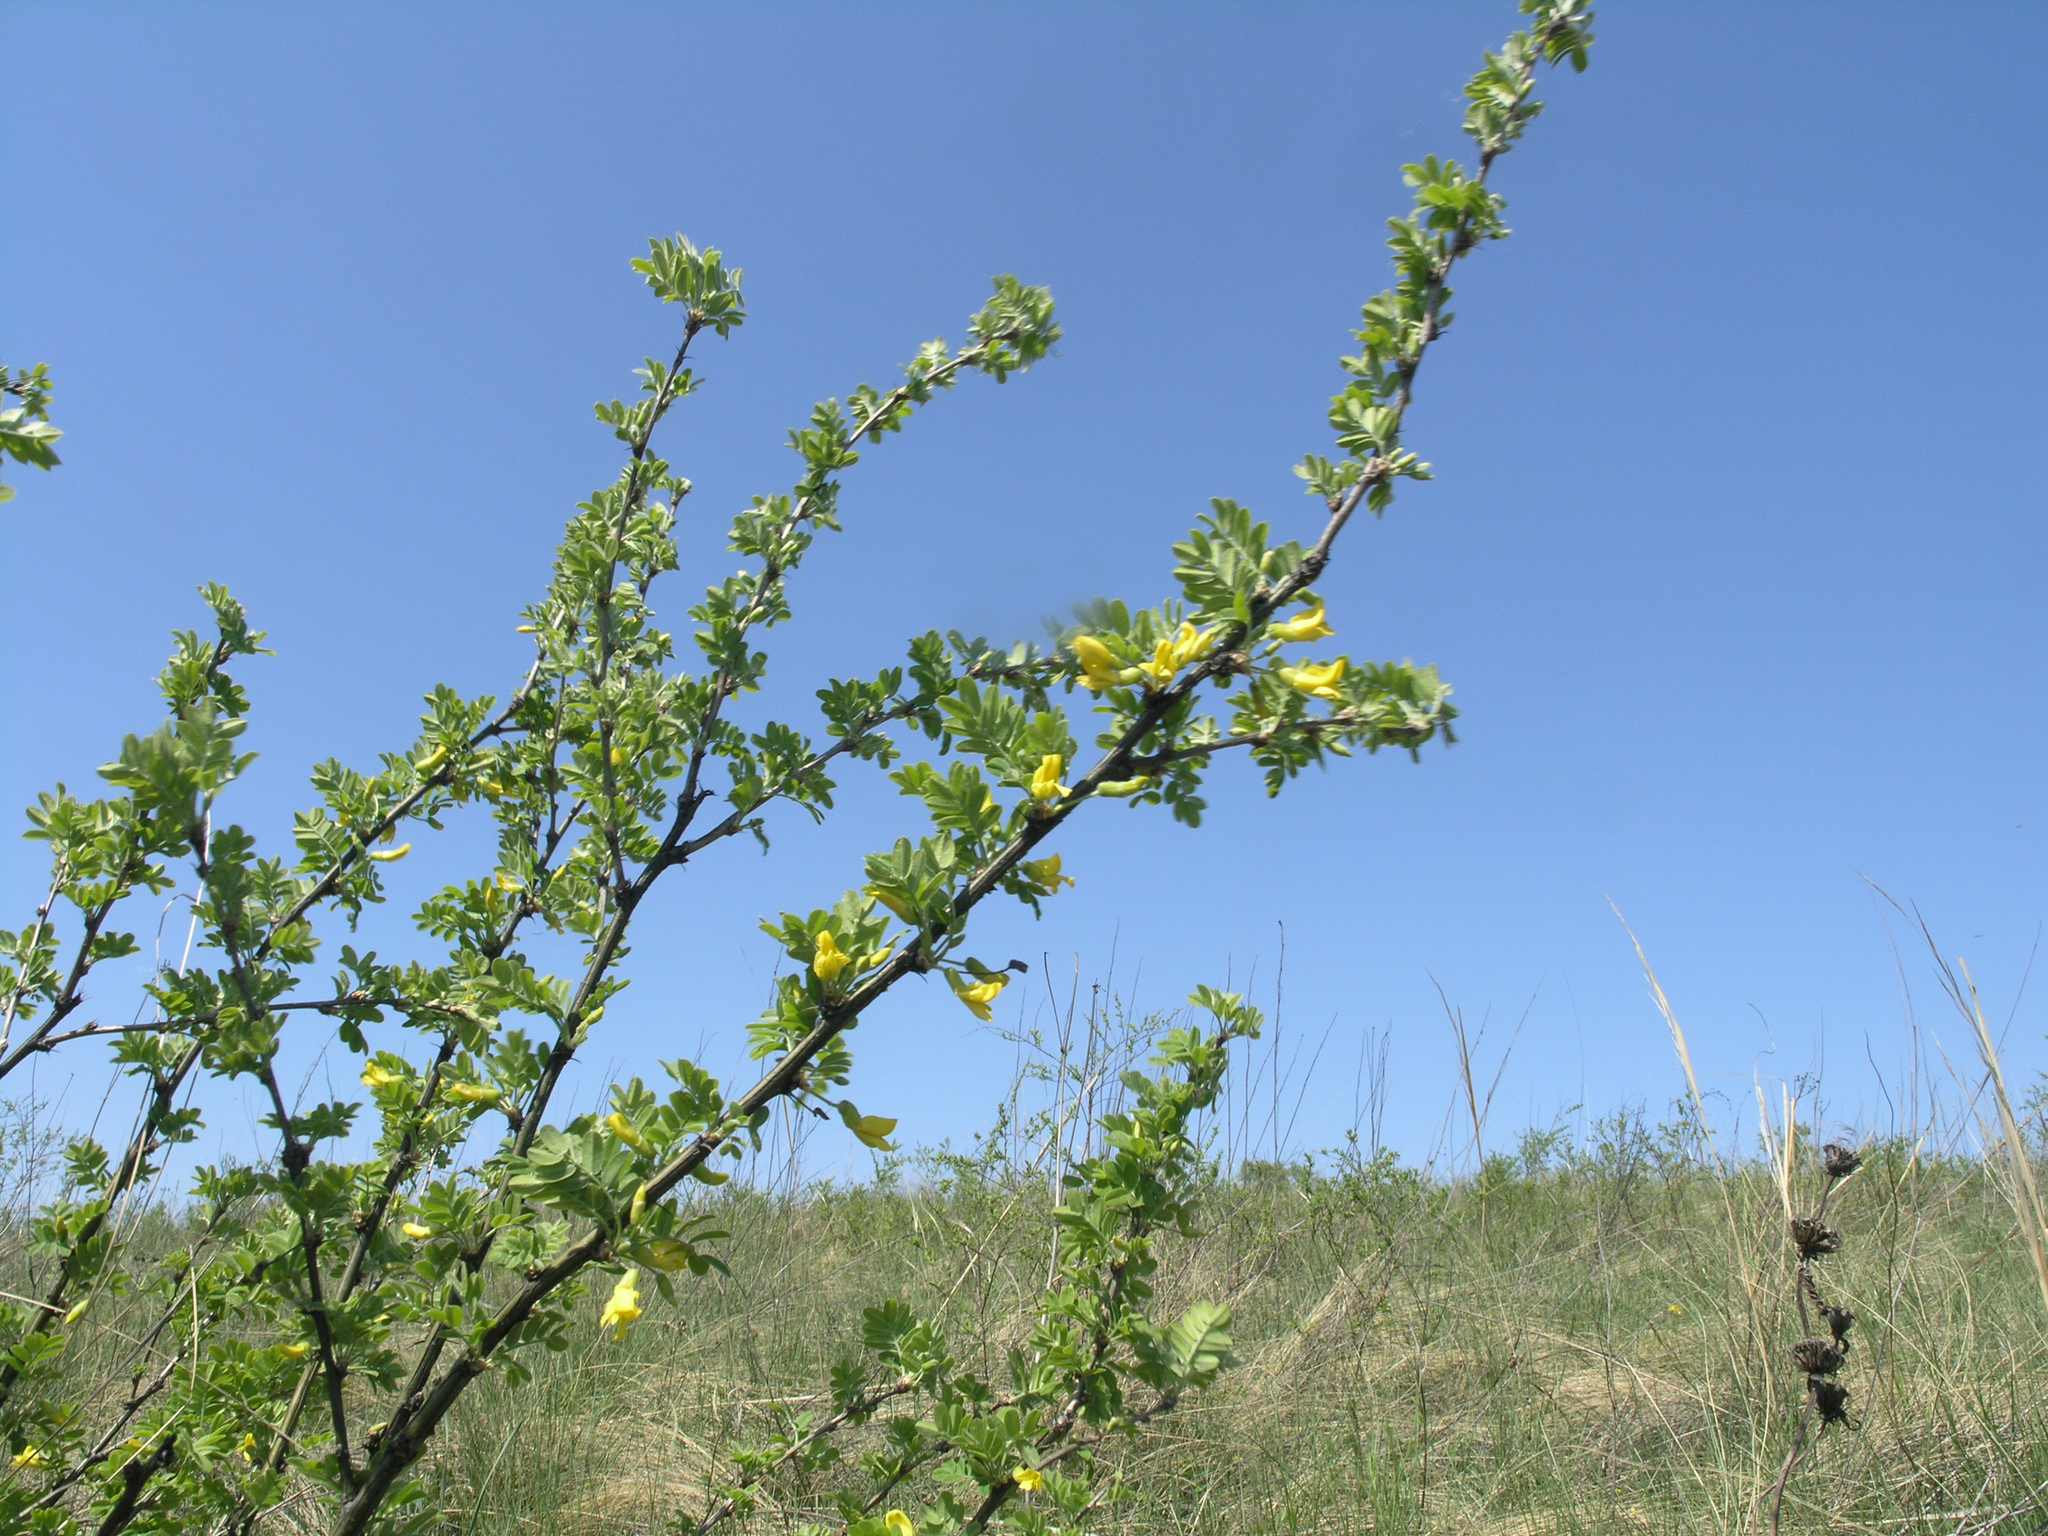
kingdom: Plantae
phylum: Tracheophyta
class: Magnoliopsida
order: Fabales
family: Fabaceae
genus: Caragana
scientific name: Caragana arborescens
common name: Siberian peashrub
